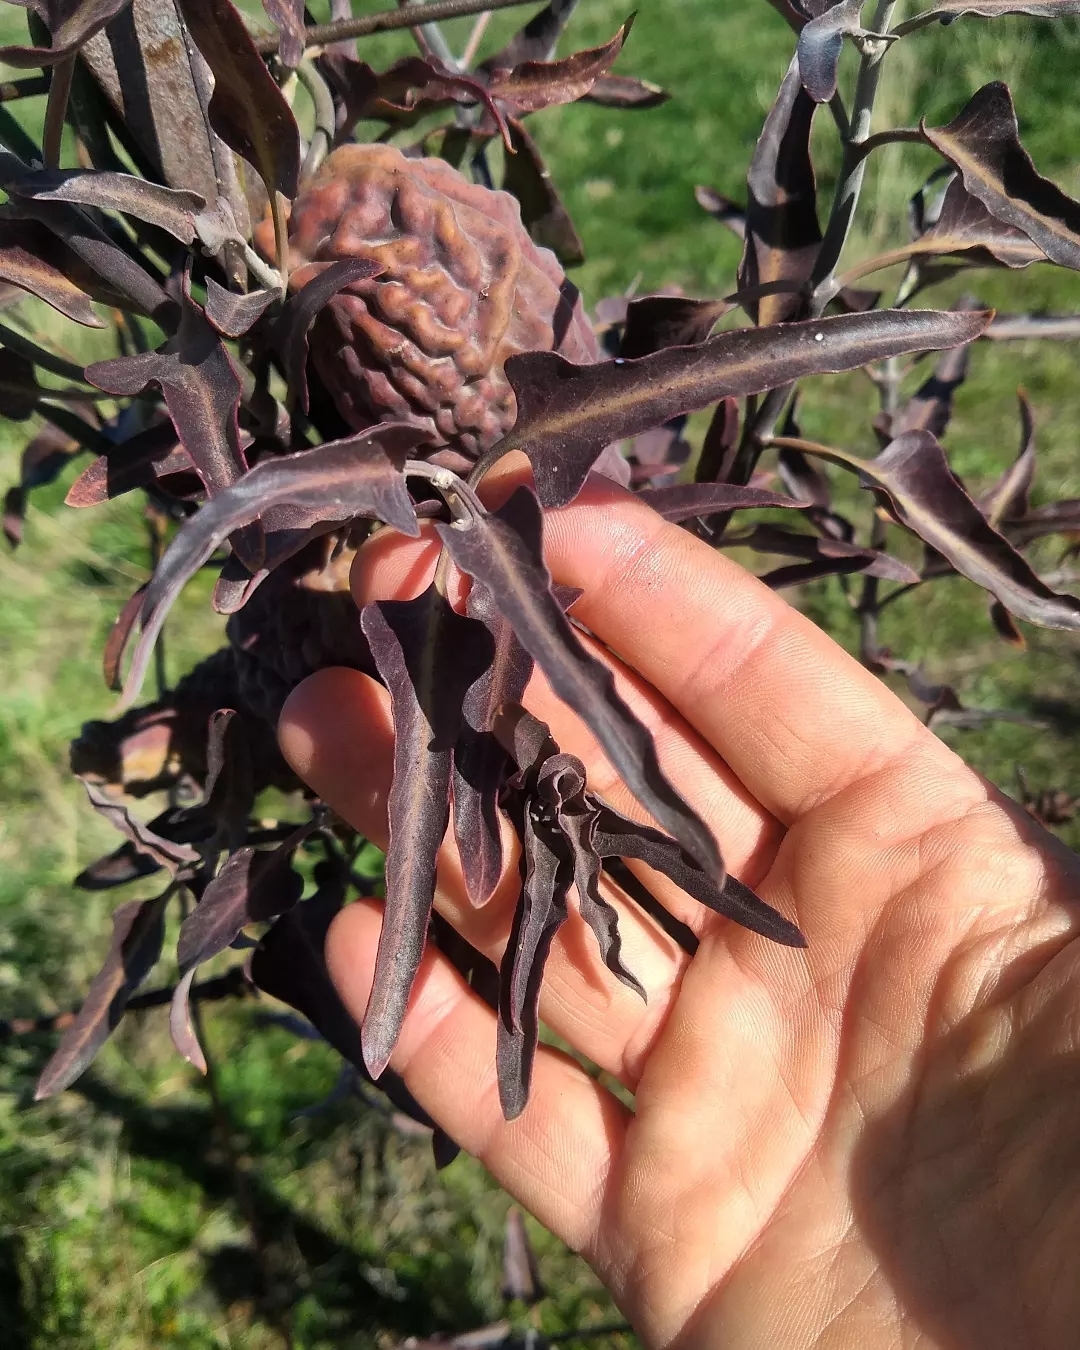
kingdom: Plantae
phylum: Tracheophyta
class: Magnoliopsida
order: Gentianales
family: Apocynaceae
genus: Araujia
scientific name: Araujia brachystephana
